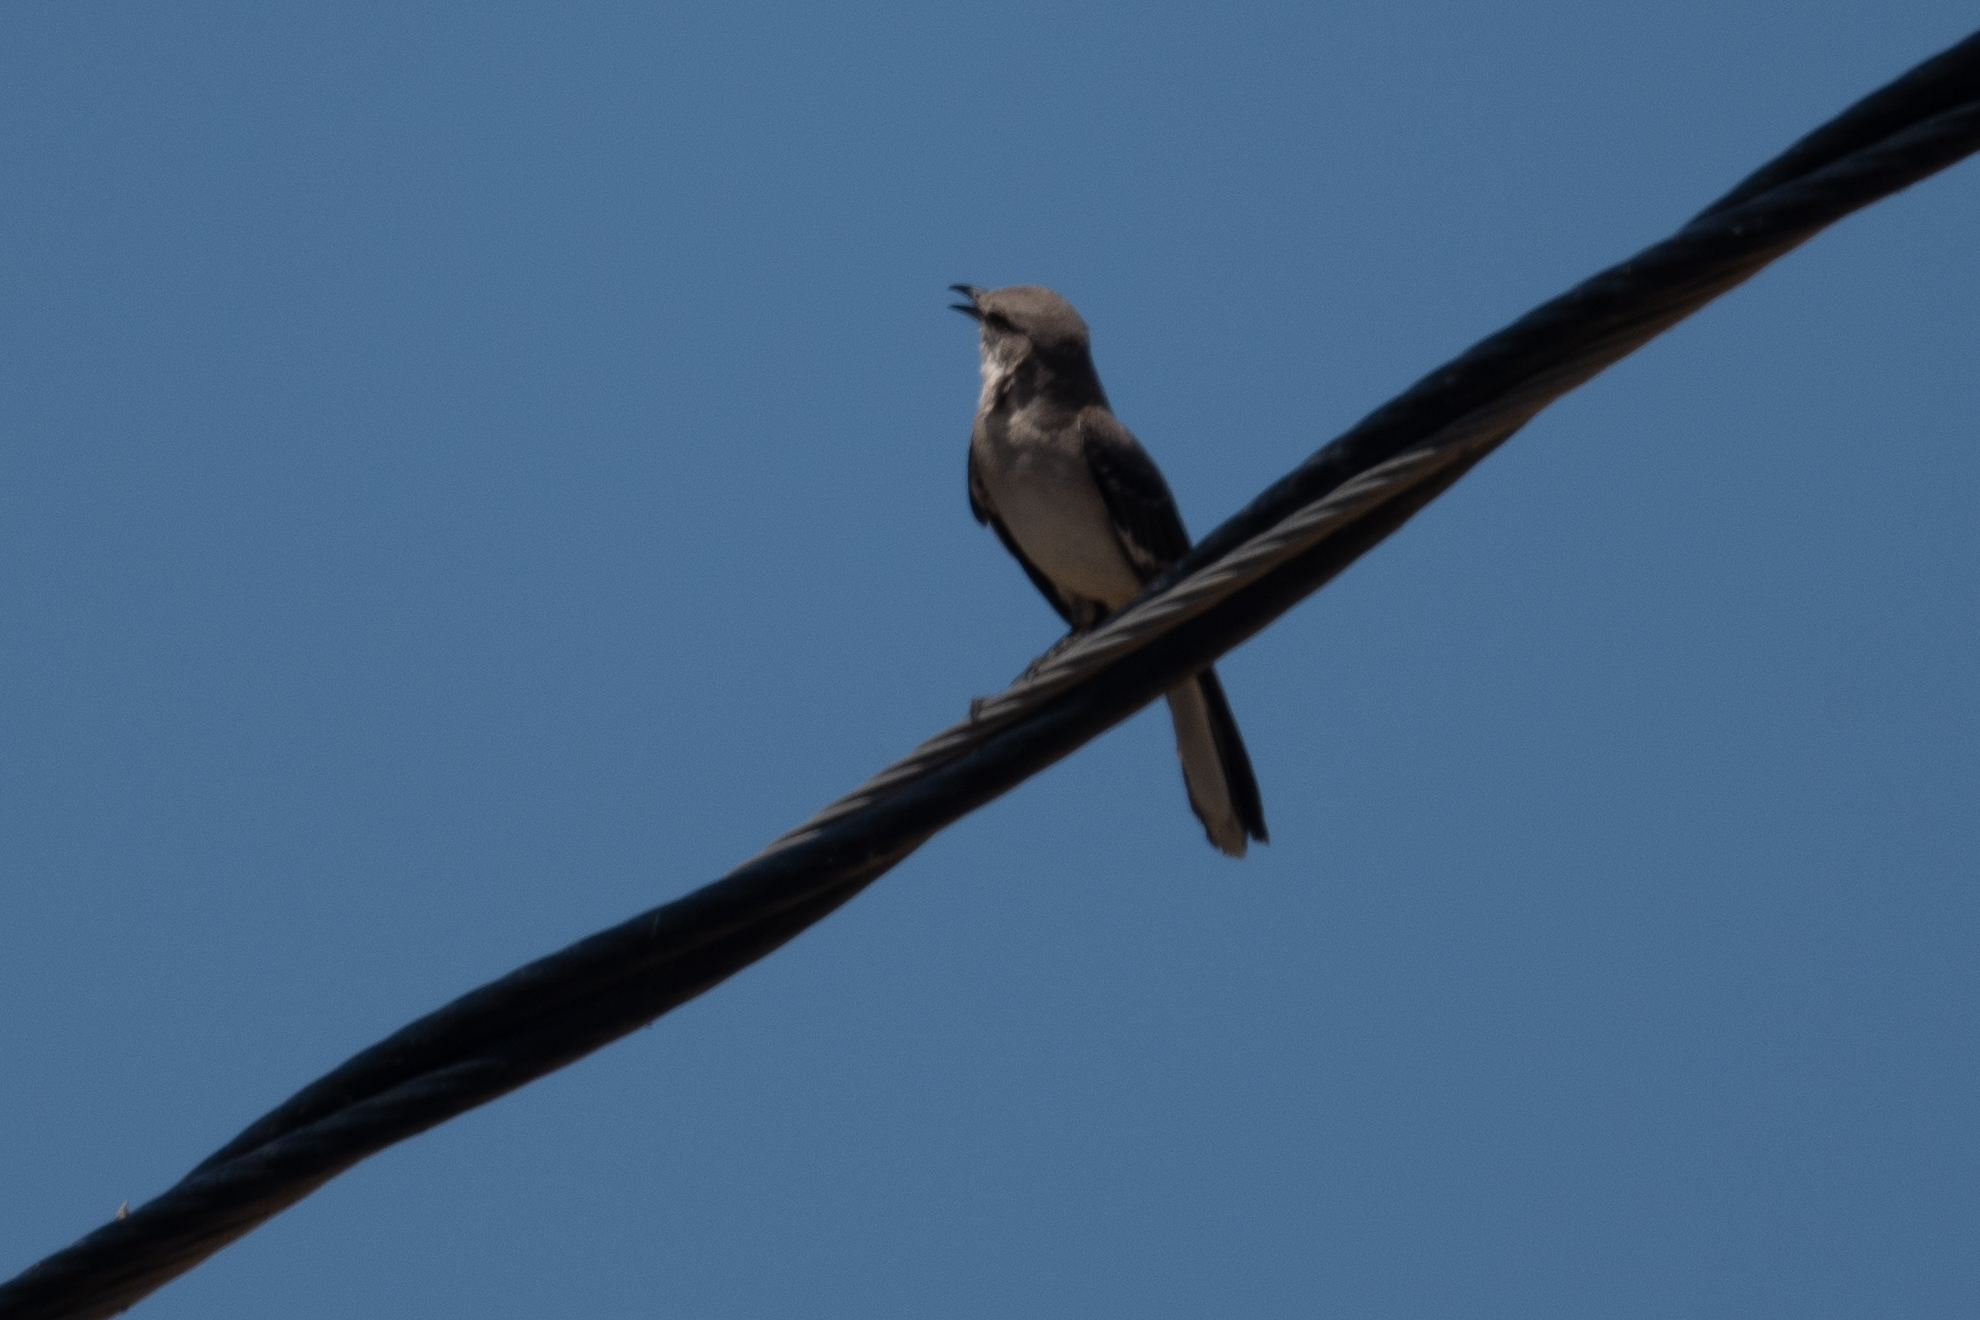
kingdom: Animalia
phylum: Chordata
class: Aves
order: Passeriformes
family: Mimidae
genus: Mimus
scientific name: Mimus polyglottos
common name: Northern mockingbird
